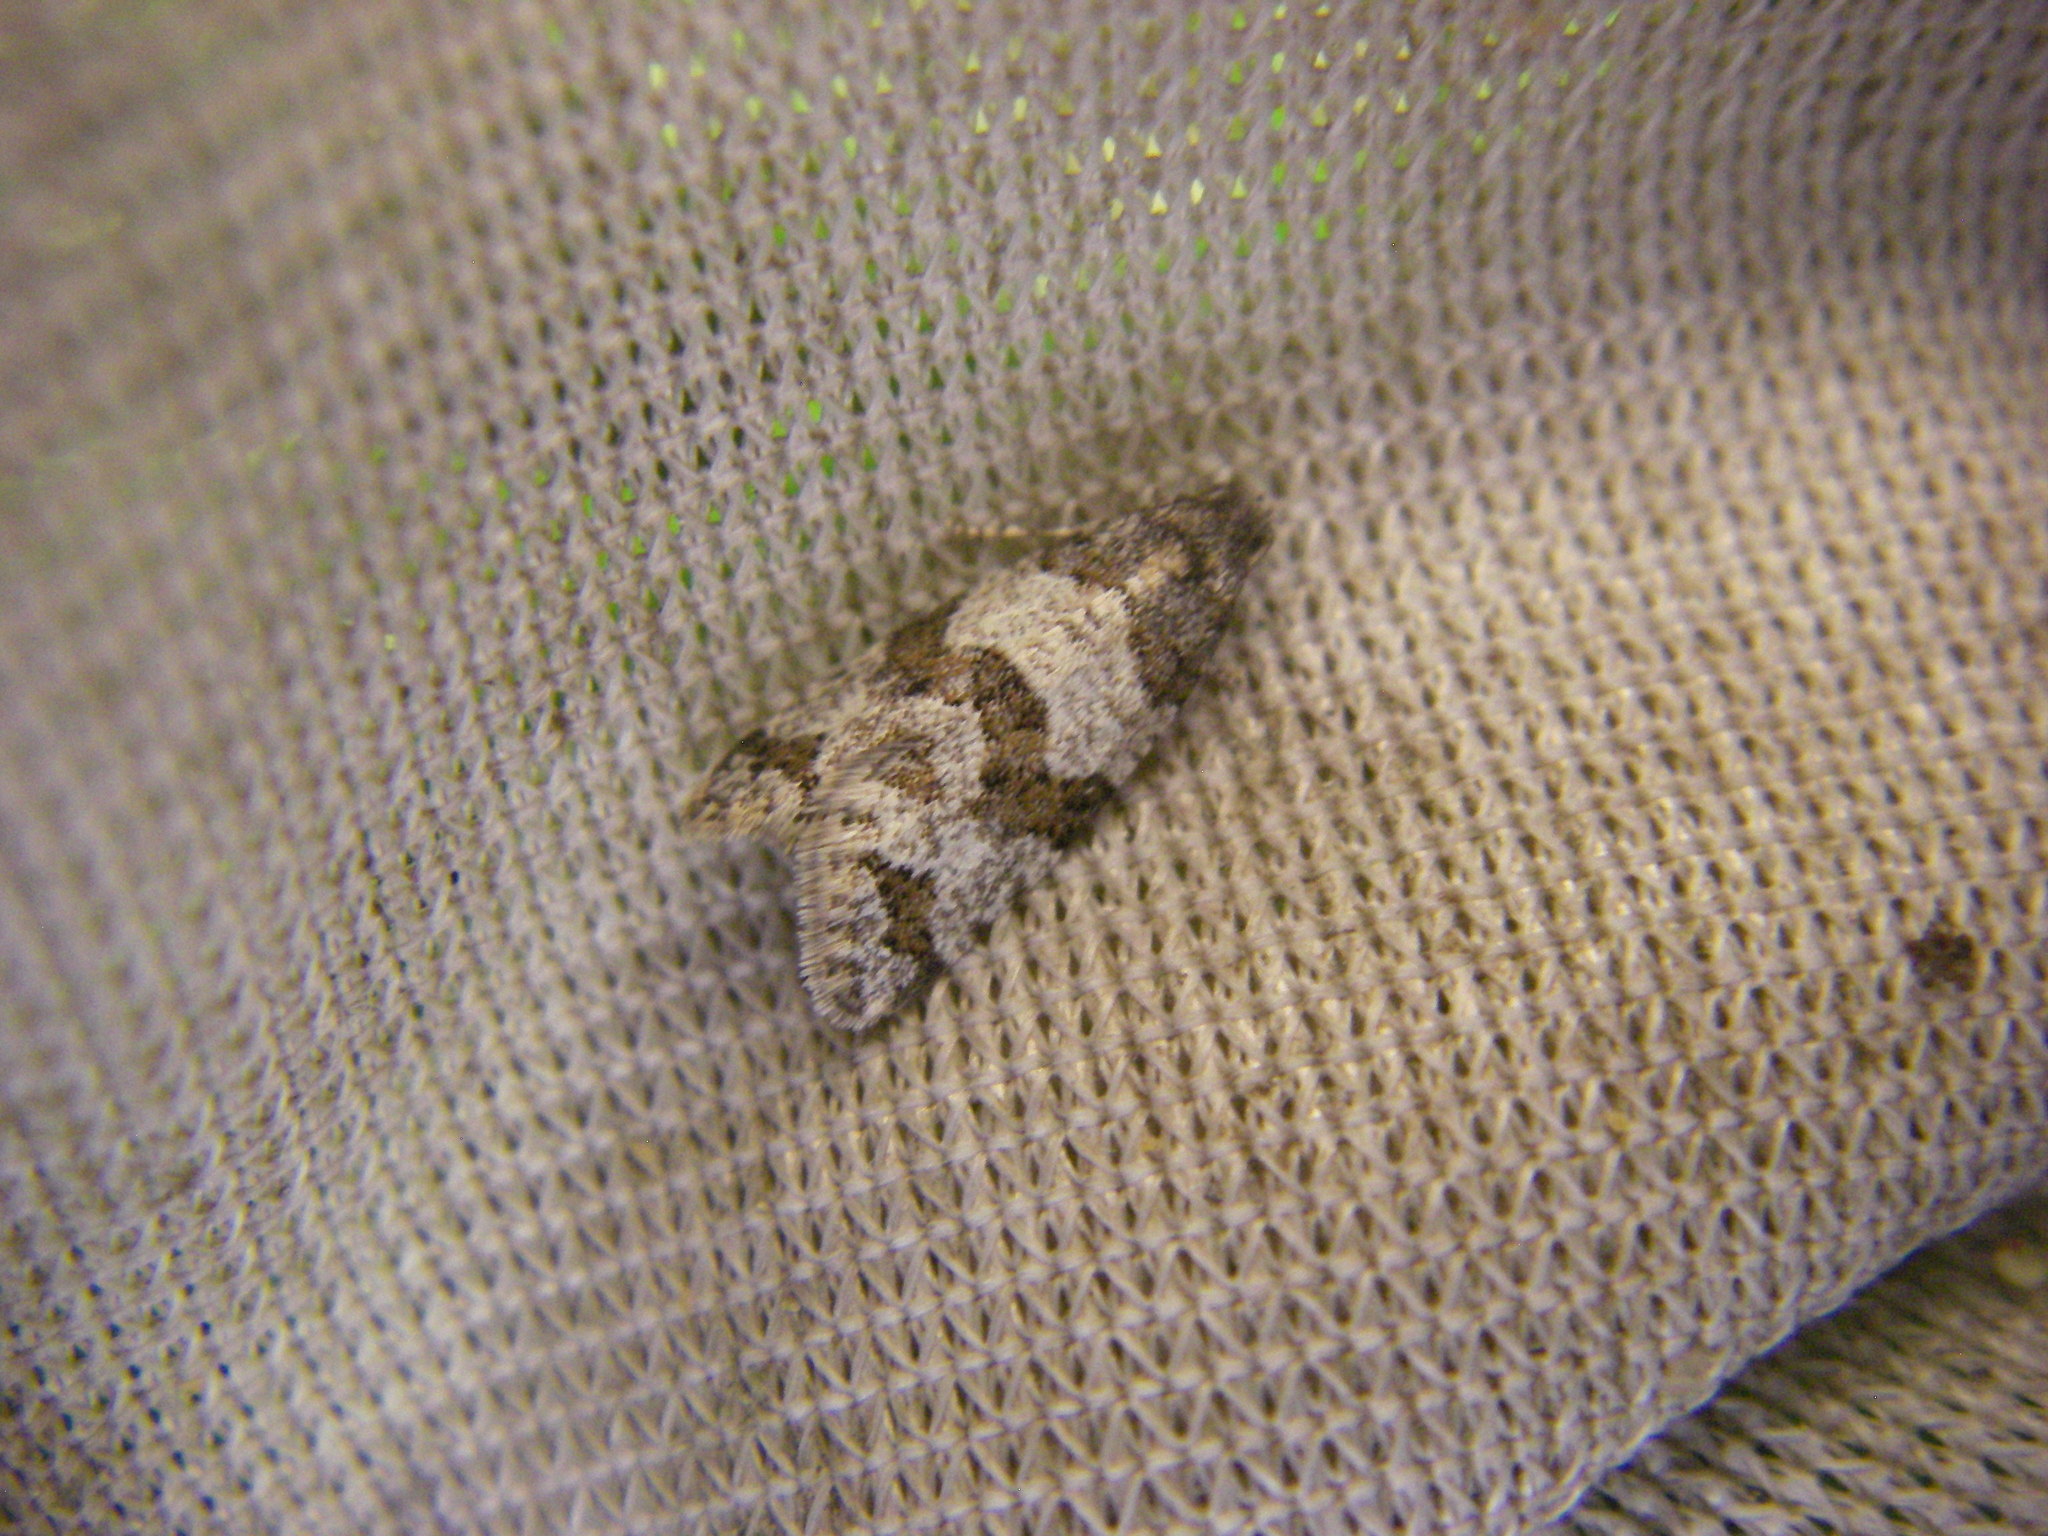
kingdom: Animalia
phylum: Arthropoda
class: Insecta
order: Lepidoptera
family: Tortricidae
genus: Isotrias
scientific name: Isotrias rectifasciana
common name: Hedge shade
